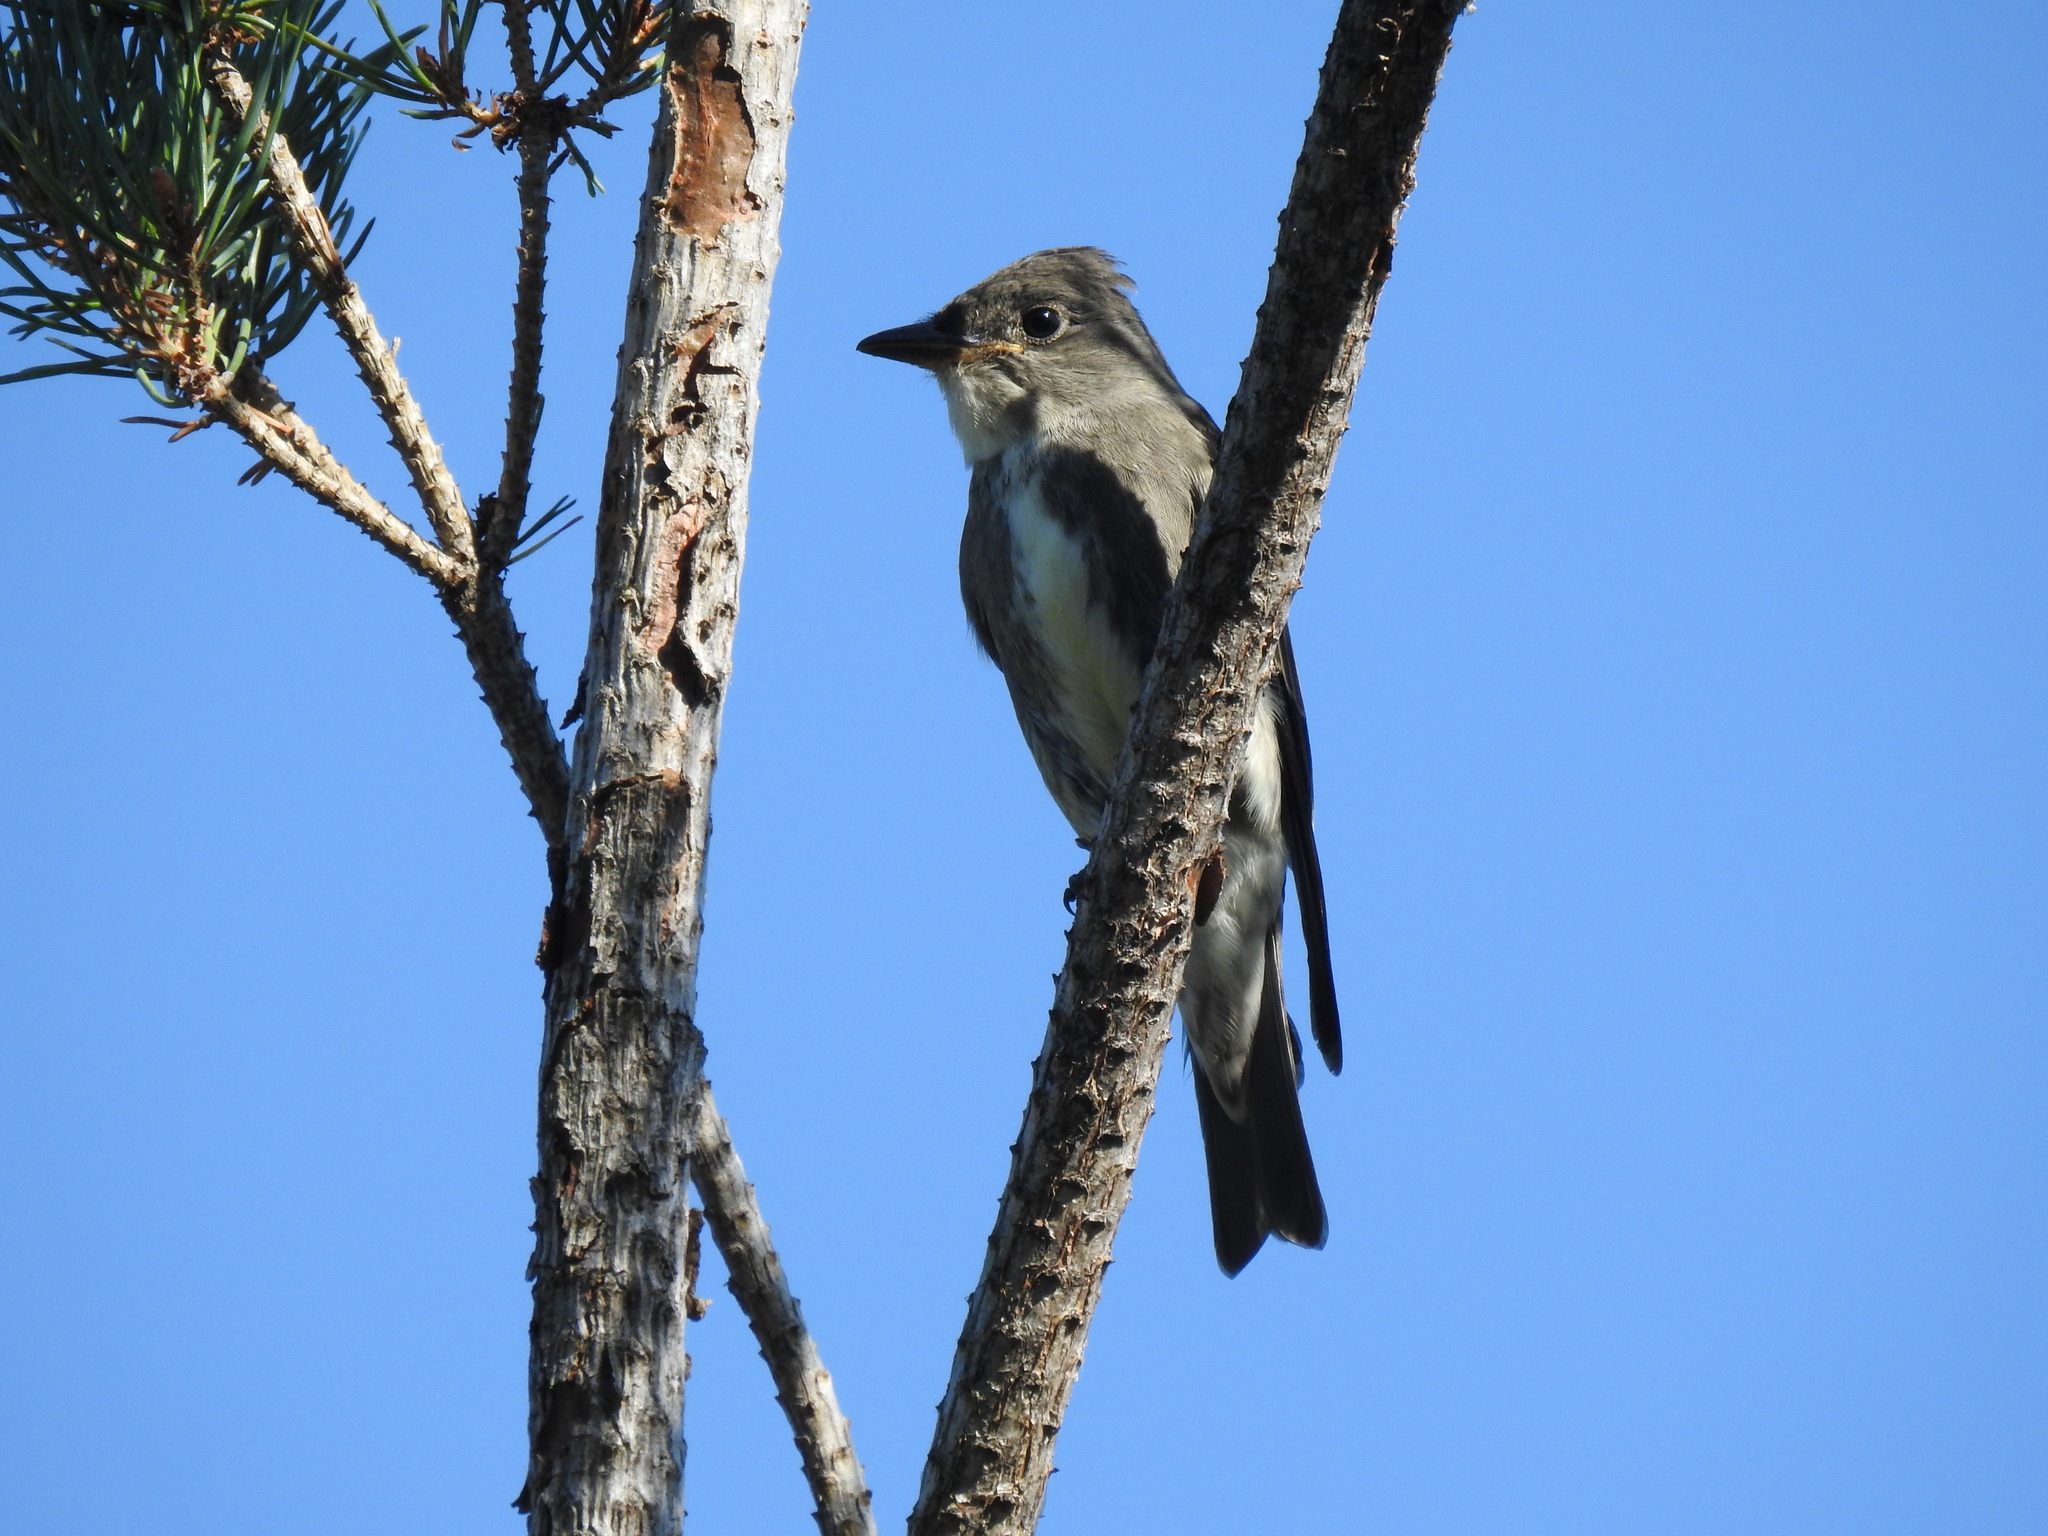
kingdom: Animalia
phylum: Chordata
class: Aves
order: Passeriformes
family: Tyrannidae
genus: Contopus
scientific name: Contopus cooperi
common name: Olive-sided flycatcher
